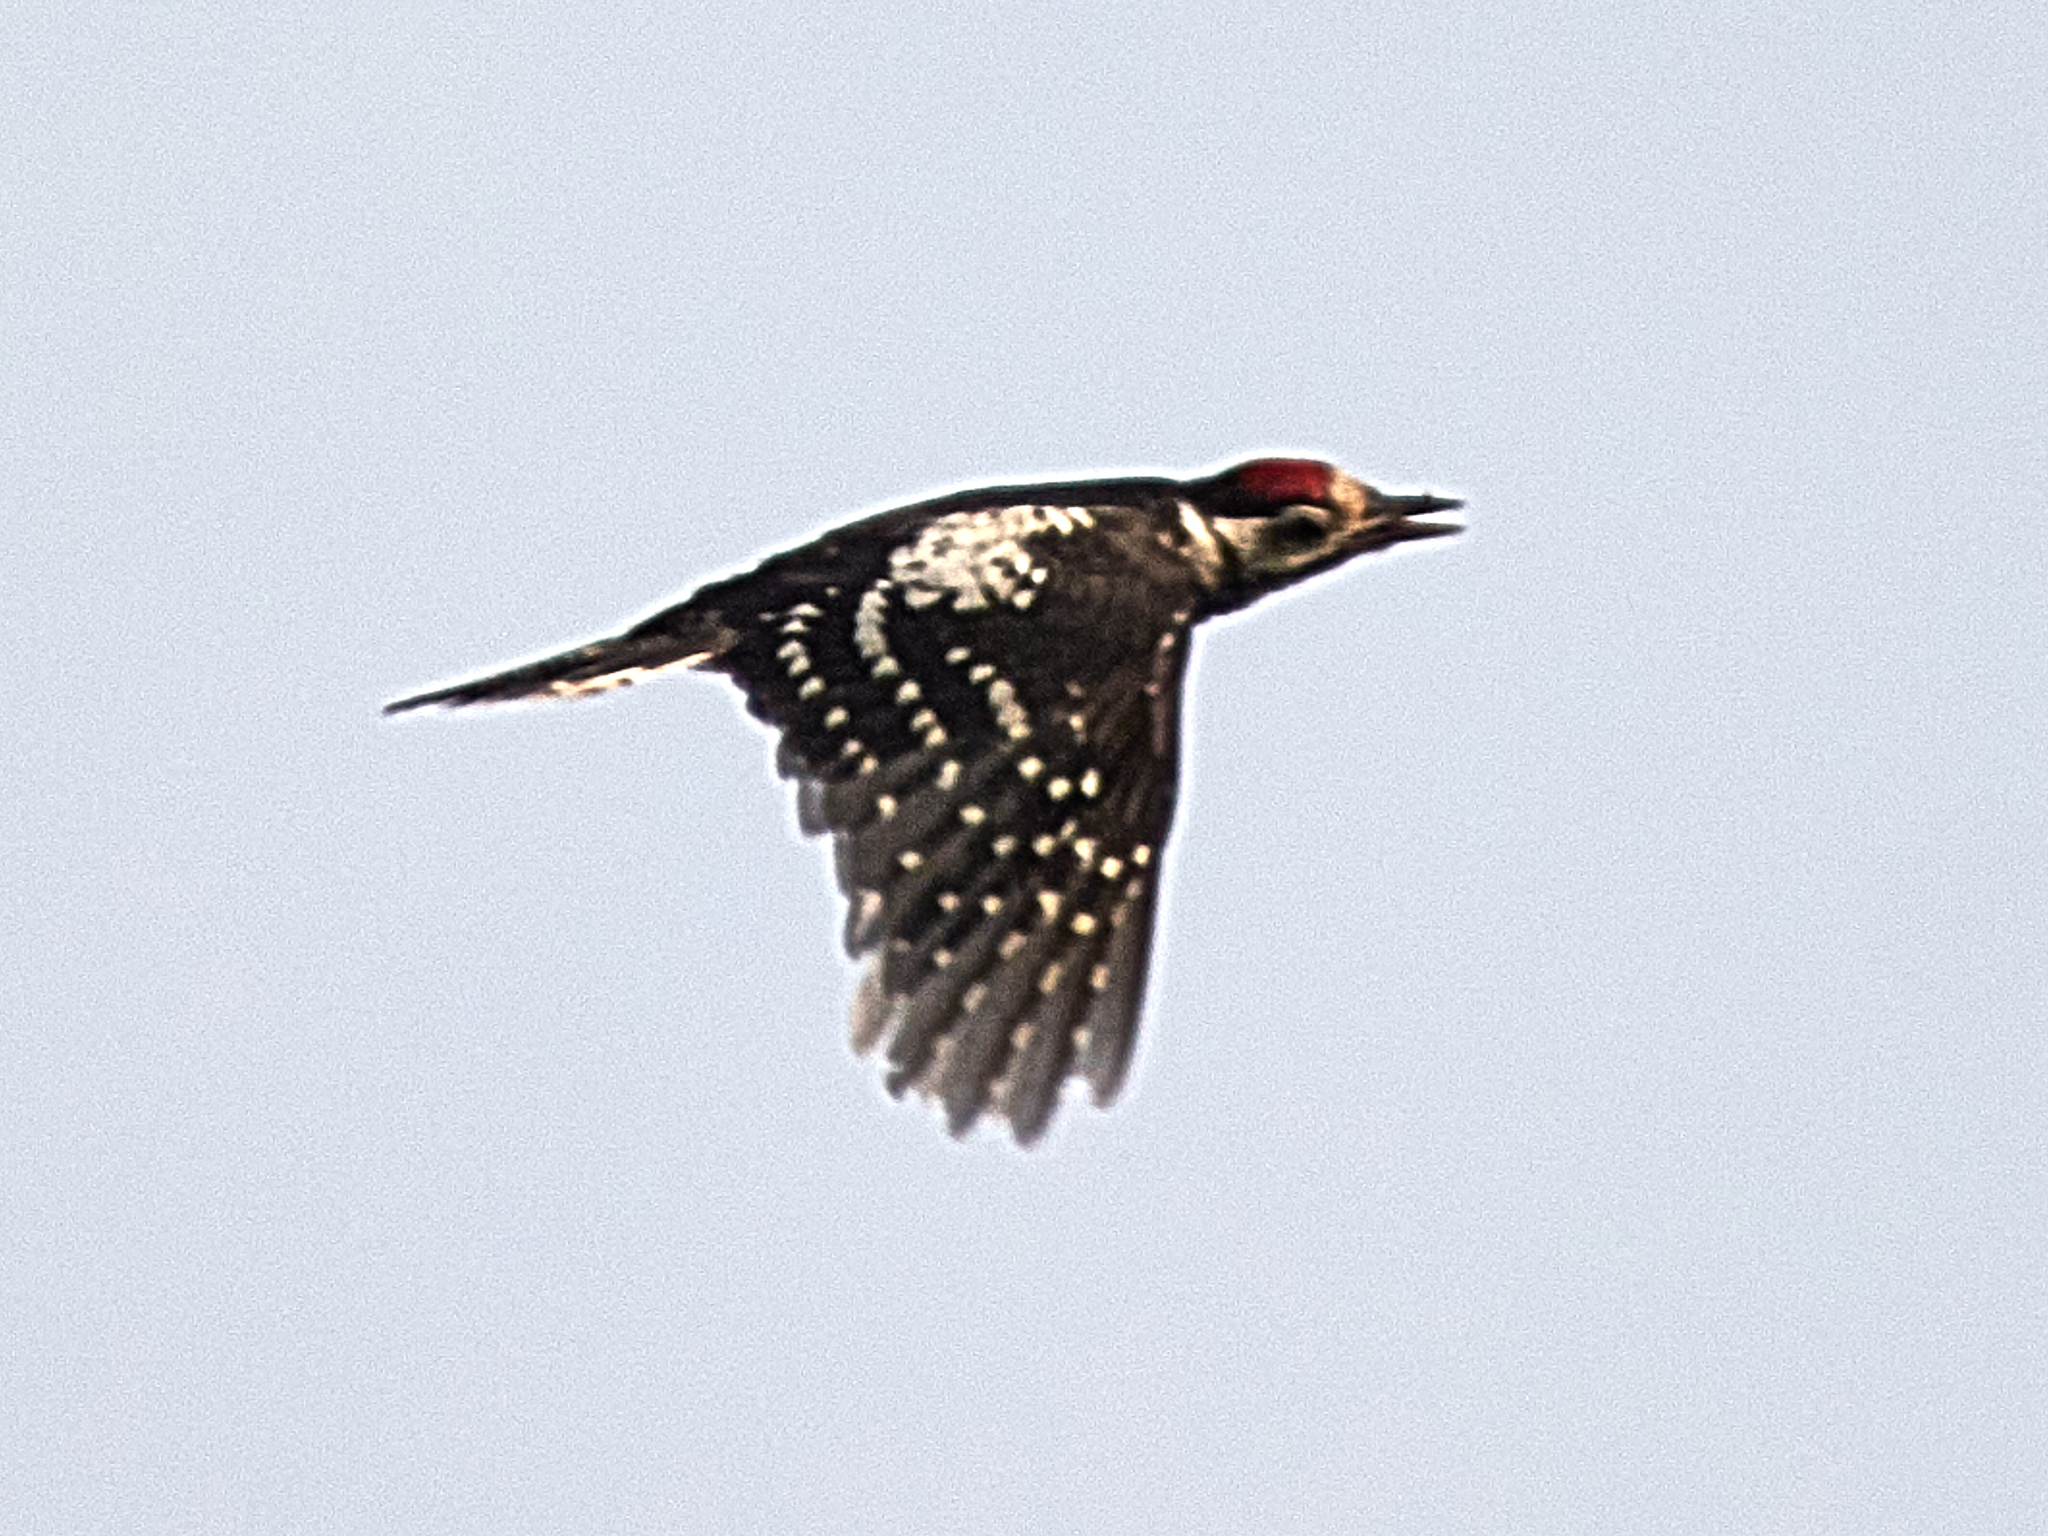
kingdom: Animalia
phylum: Chordata
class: Aves
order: Piciformes
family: Picidae
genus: Dendrocopos
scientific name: Dendrocopos major
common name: Great spotted woodpecker
